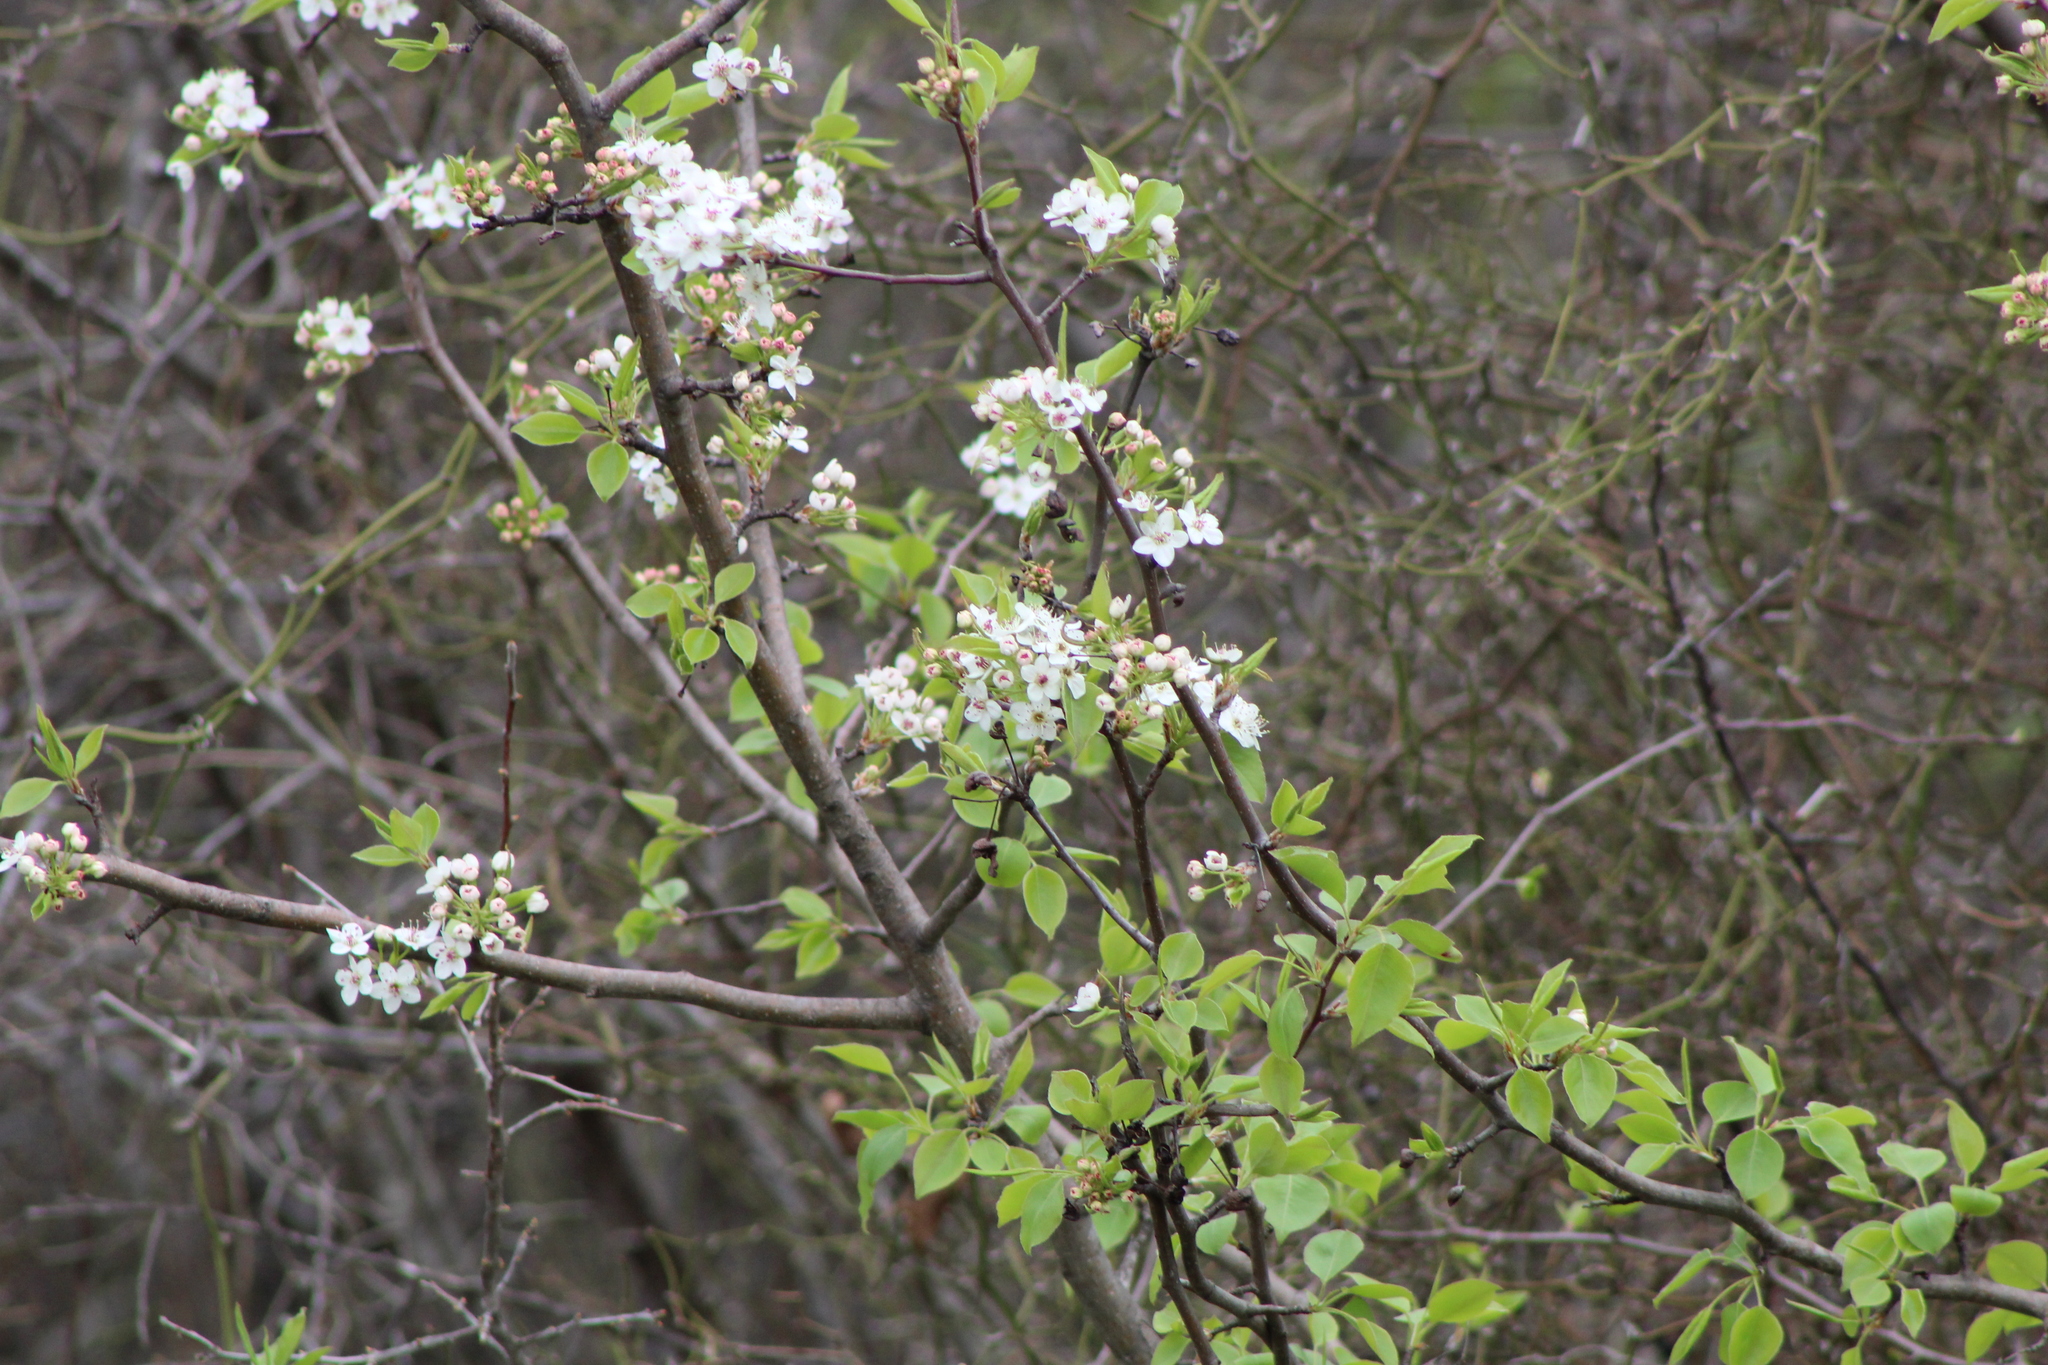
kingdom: Plantae
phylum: Tracheophyta
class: Magnoliopsida
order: Rosales
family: Rosaceae
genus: Pyrus
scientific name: Pyrus calleryana
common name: Callery pear
